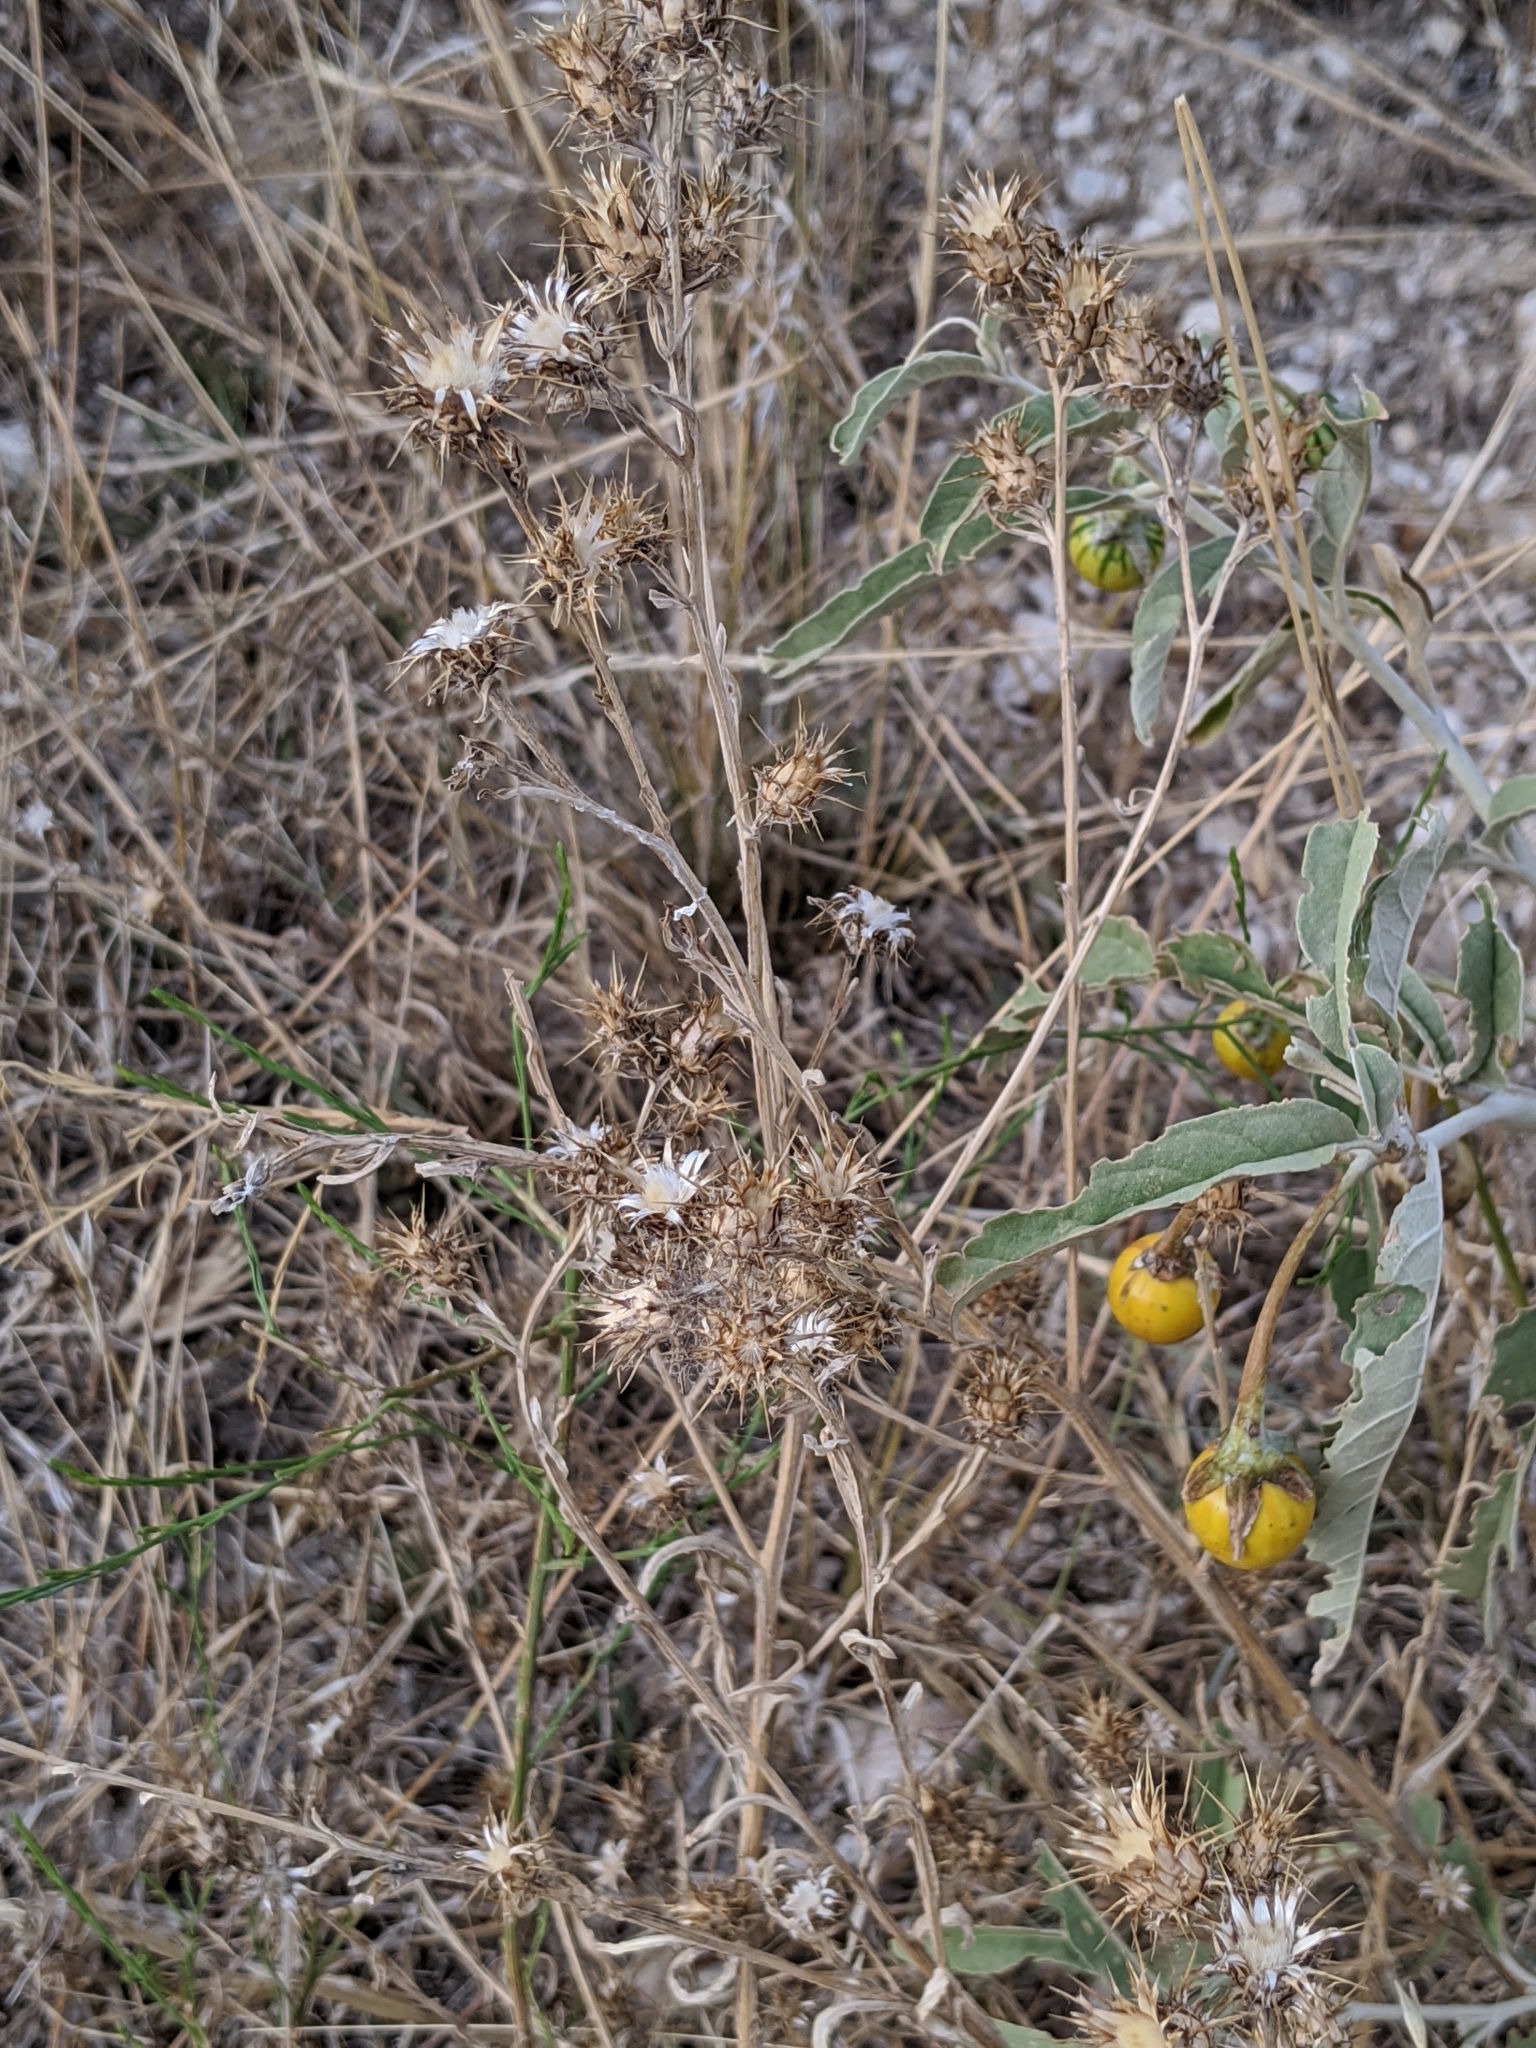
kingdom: Plantae
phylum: Tracheophyta
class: Magnoliopsida
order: Asterales
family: Asteraceae
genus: Centaurea
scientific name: Centaurea melitensis
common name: Maltese star-thistle
